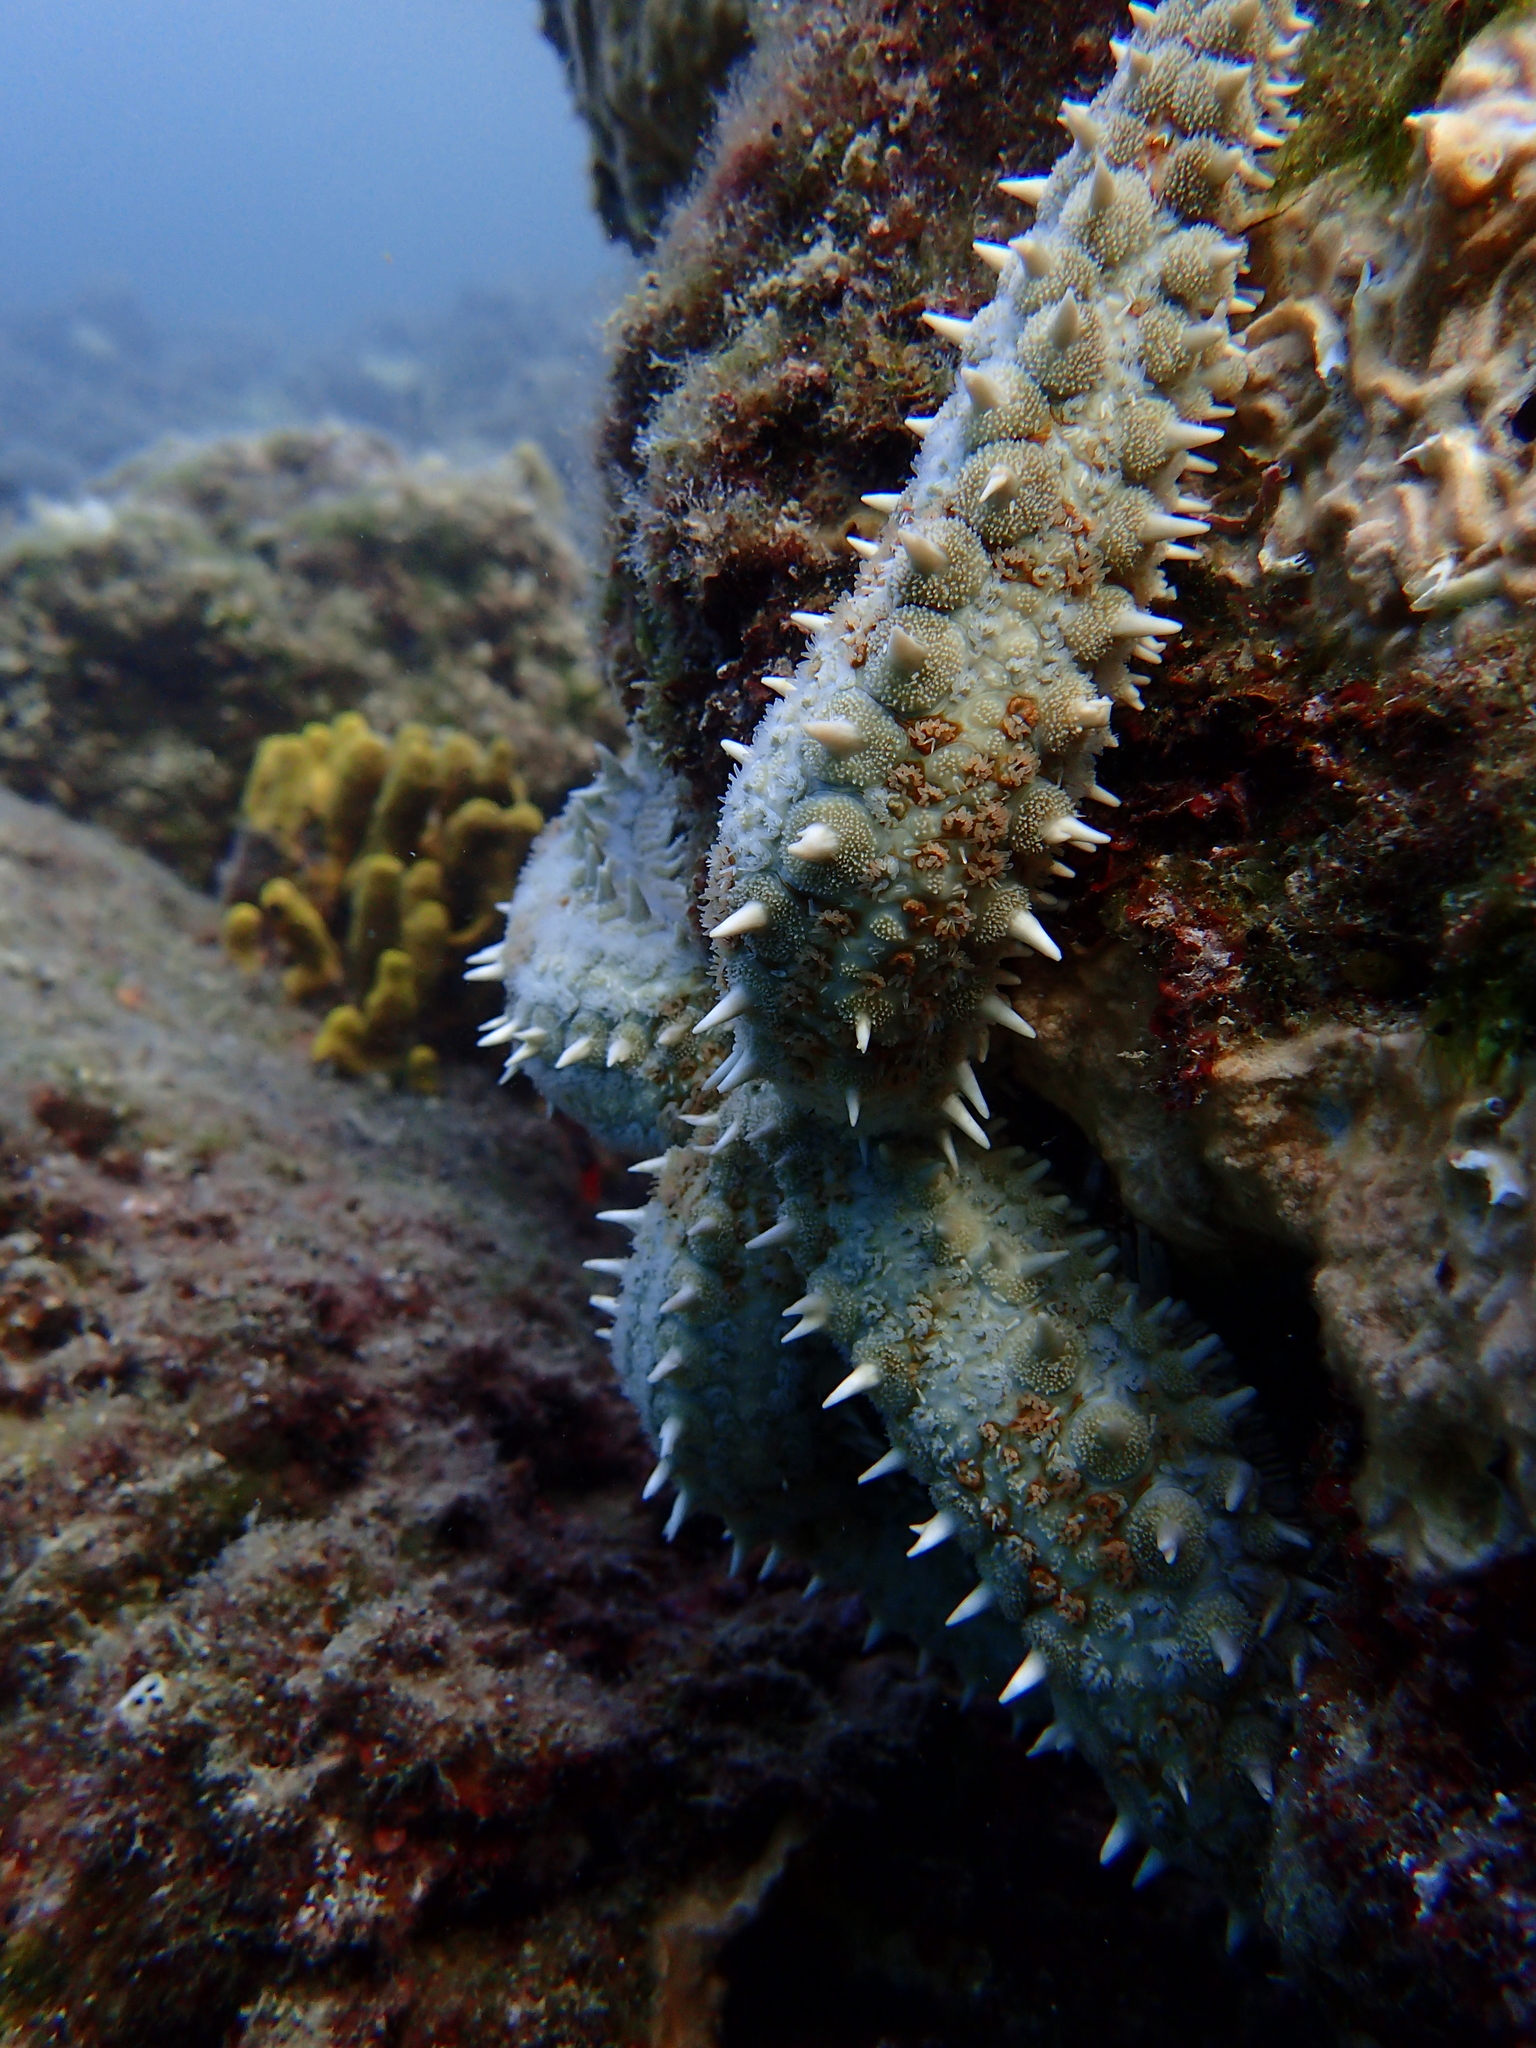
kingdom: Animalia
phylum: Echinodermata
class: Asteroidea
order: Forcipulatida
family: Asteriidae
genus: Marthasterias
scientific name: Marthasterias glacialis
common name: Spiny starfish
